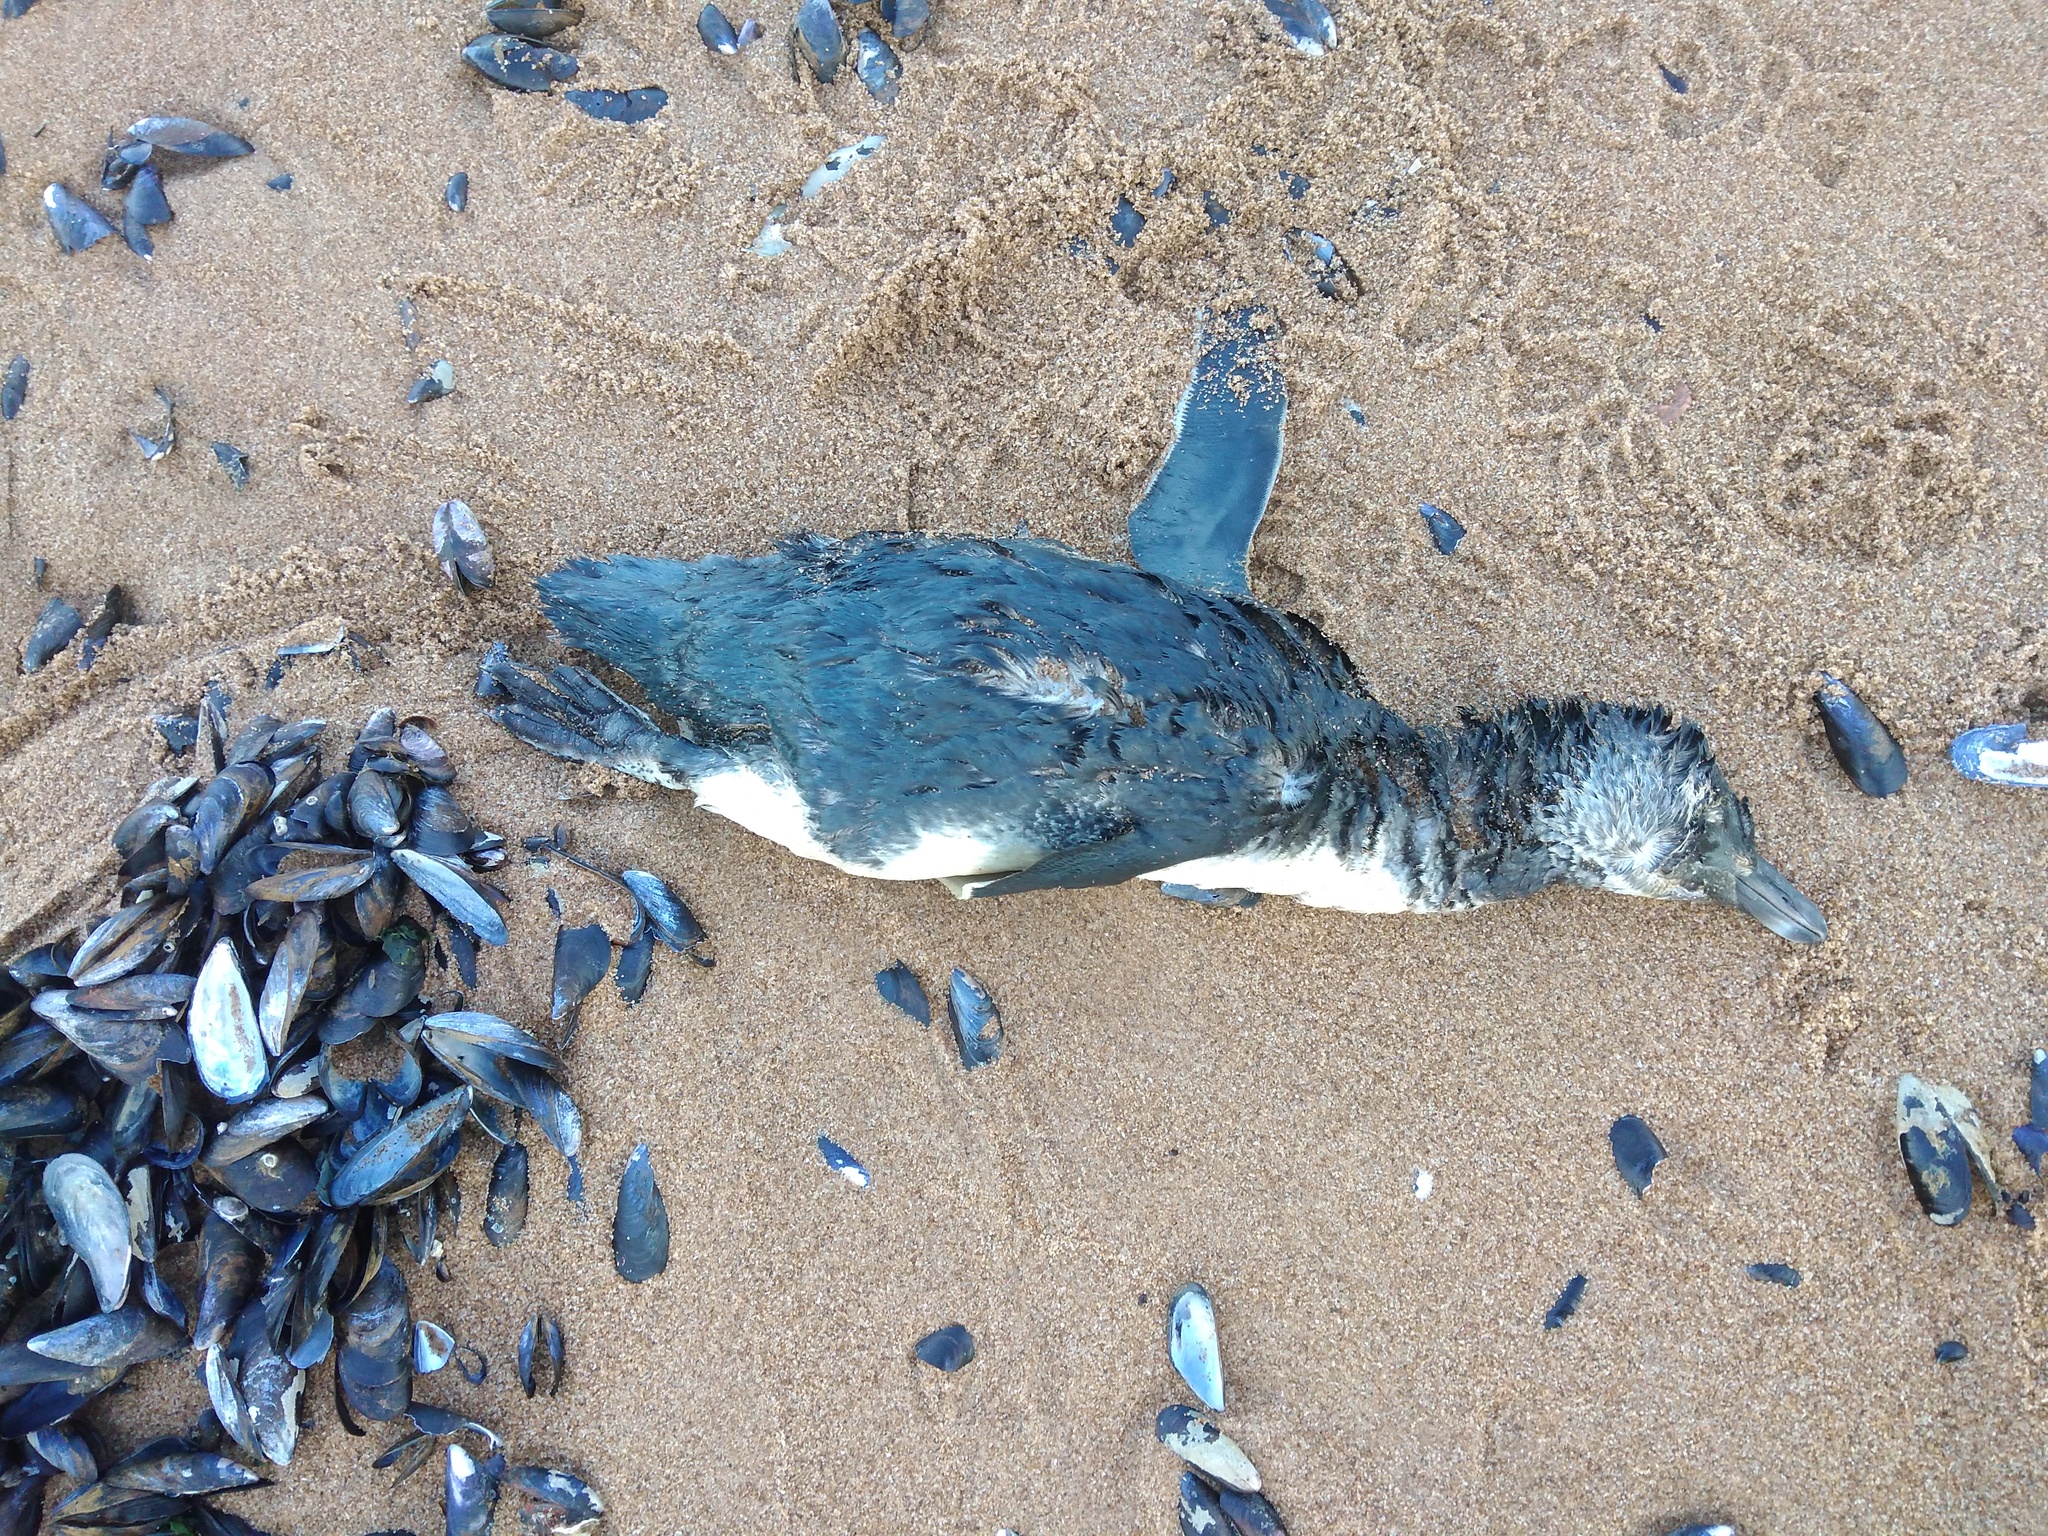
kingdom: Animalia
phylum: Chordata
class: Aves
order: Sphenisciformes
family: Spheniscidae
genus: Spheniscus
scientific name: Spheniscus magellanicus
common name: Magellanic penguin
